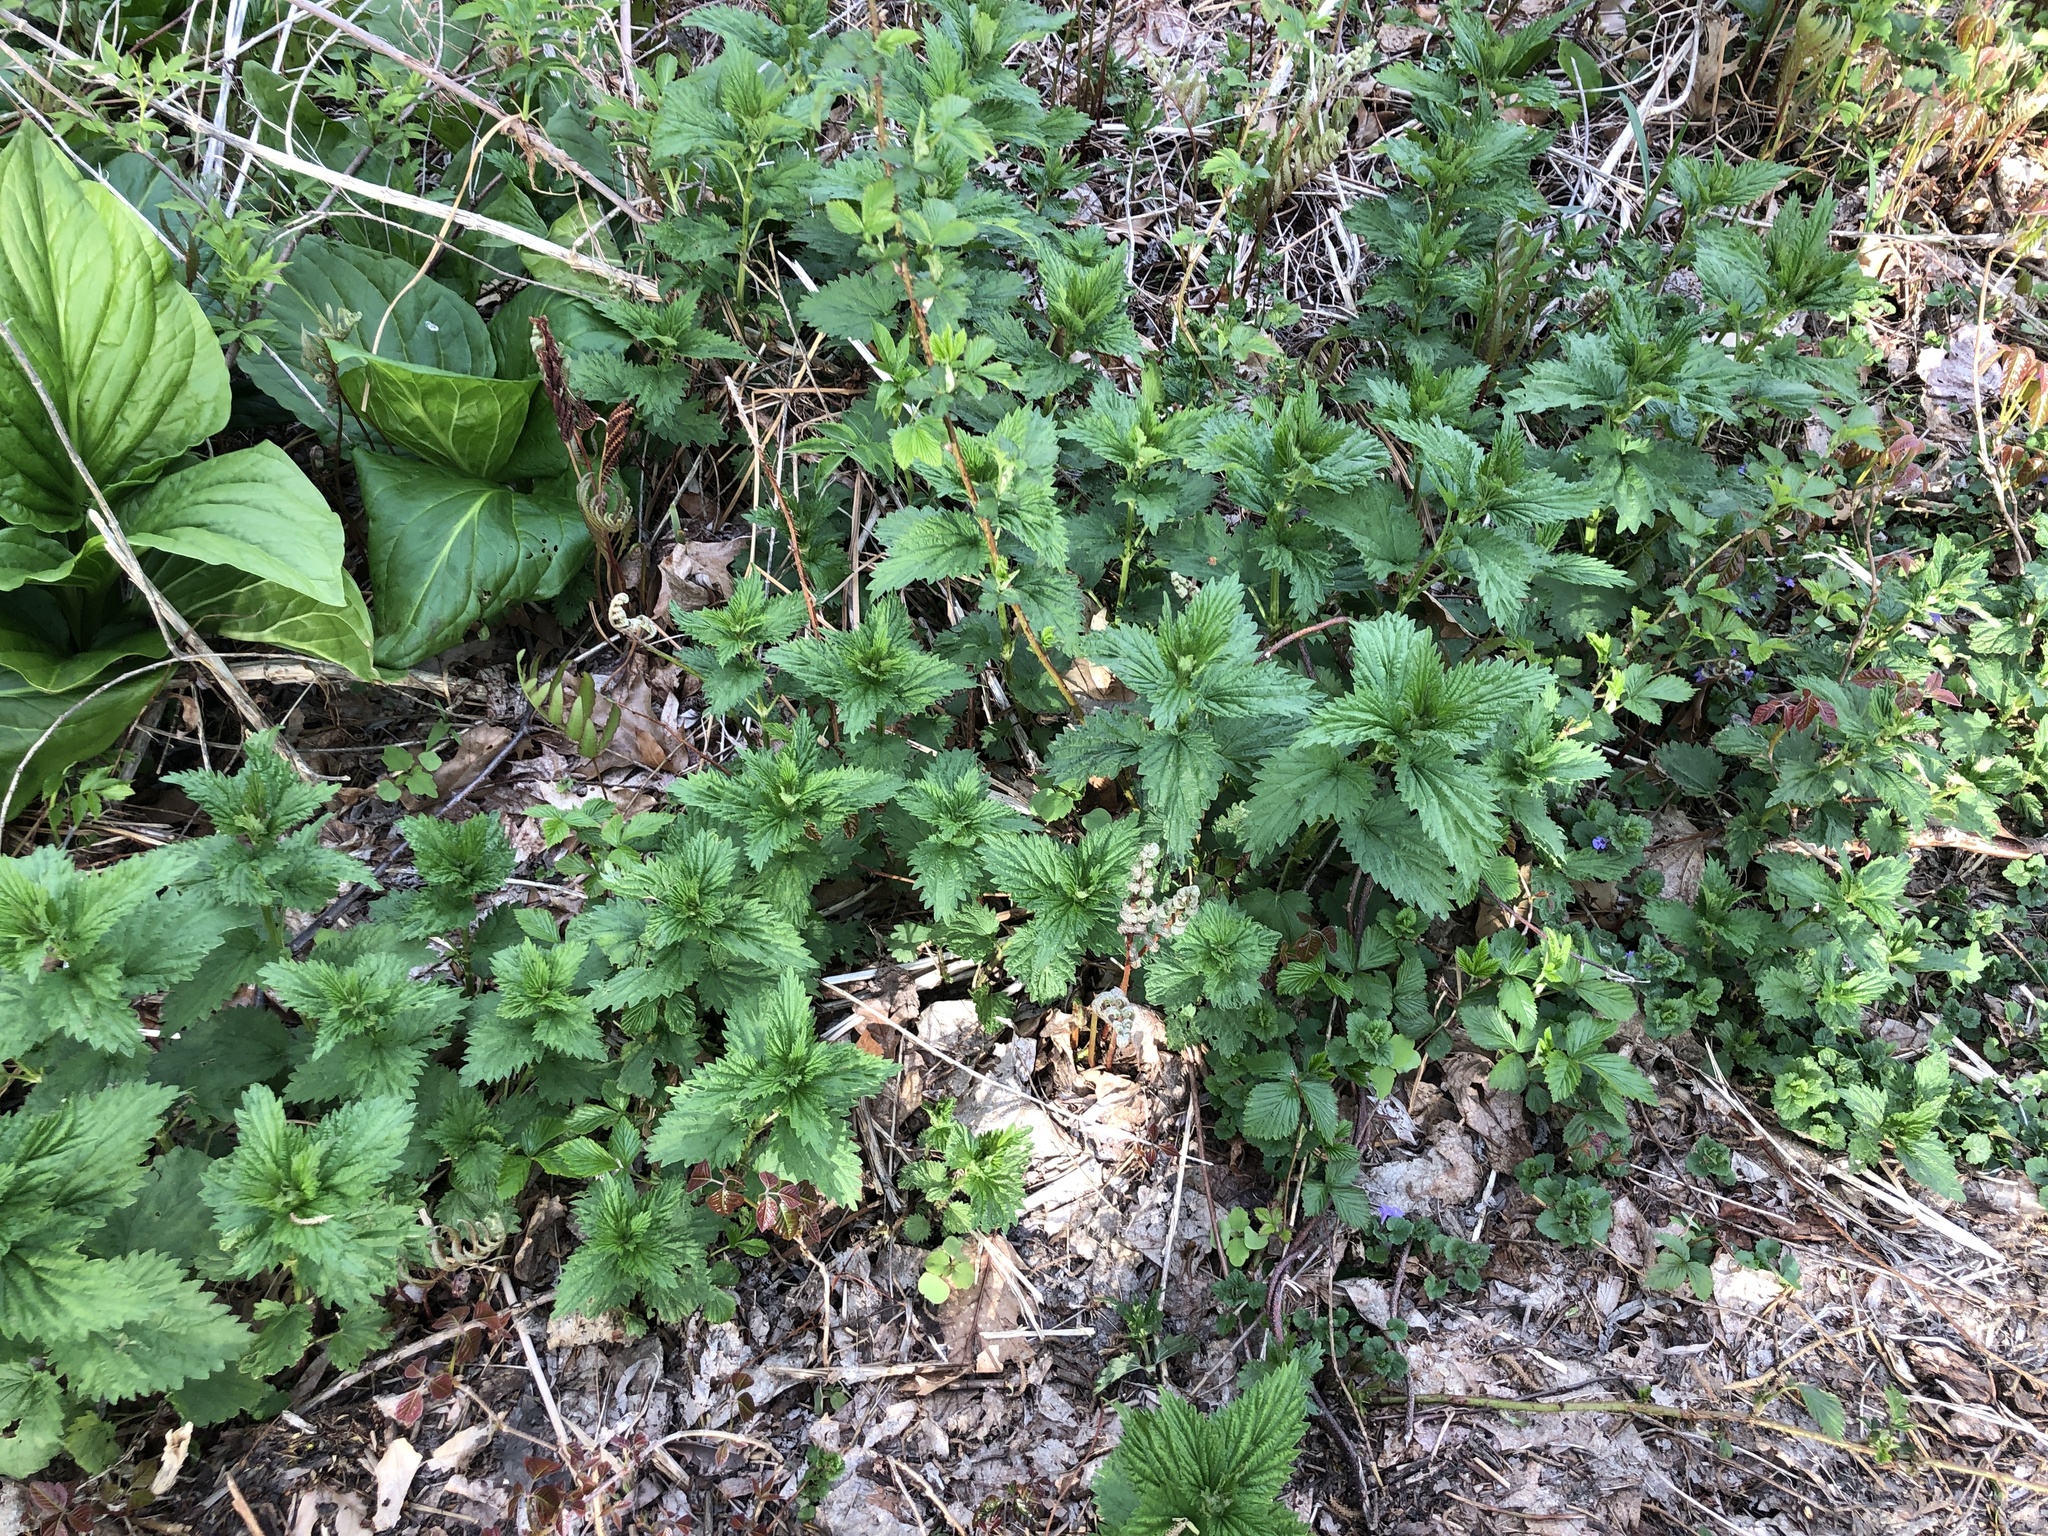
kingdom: Plantae
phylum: Tracheophyta
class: Magnoliopsida
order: Rosales
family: Urticaceae
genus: Urtica
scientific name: Urtica dioica
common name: Common nettle
